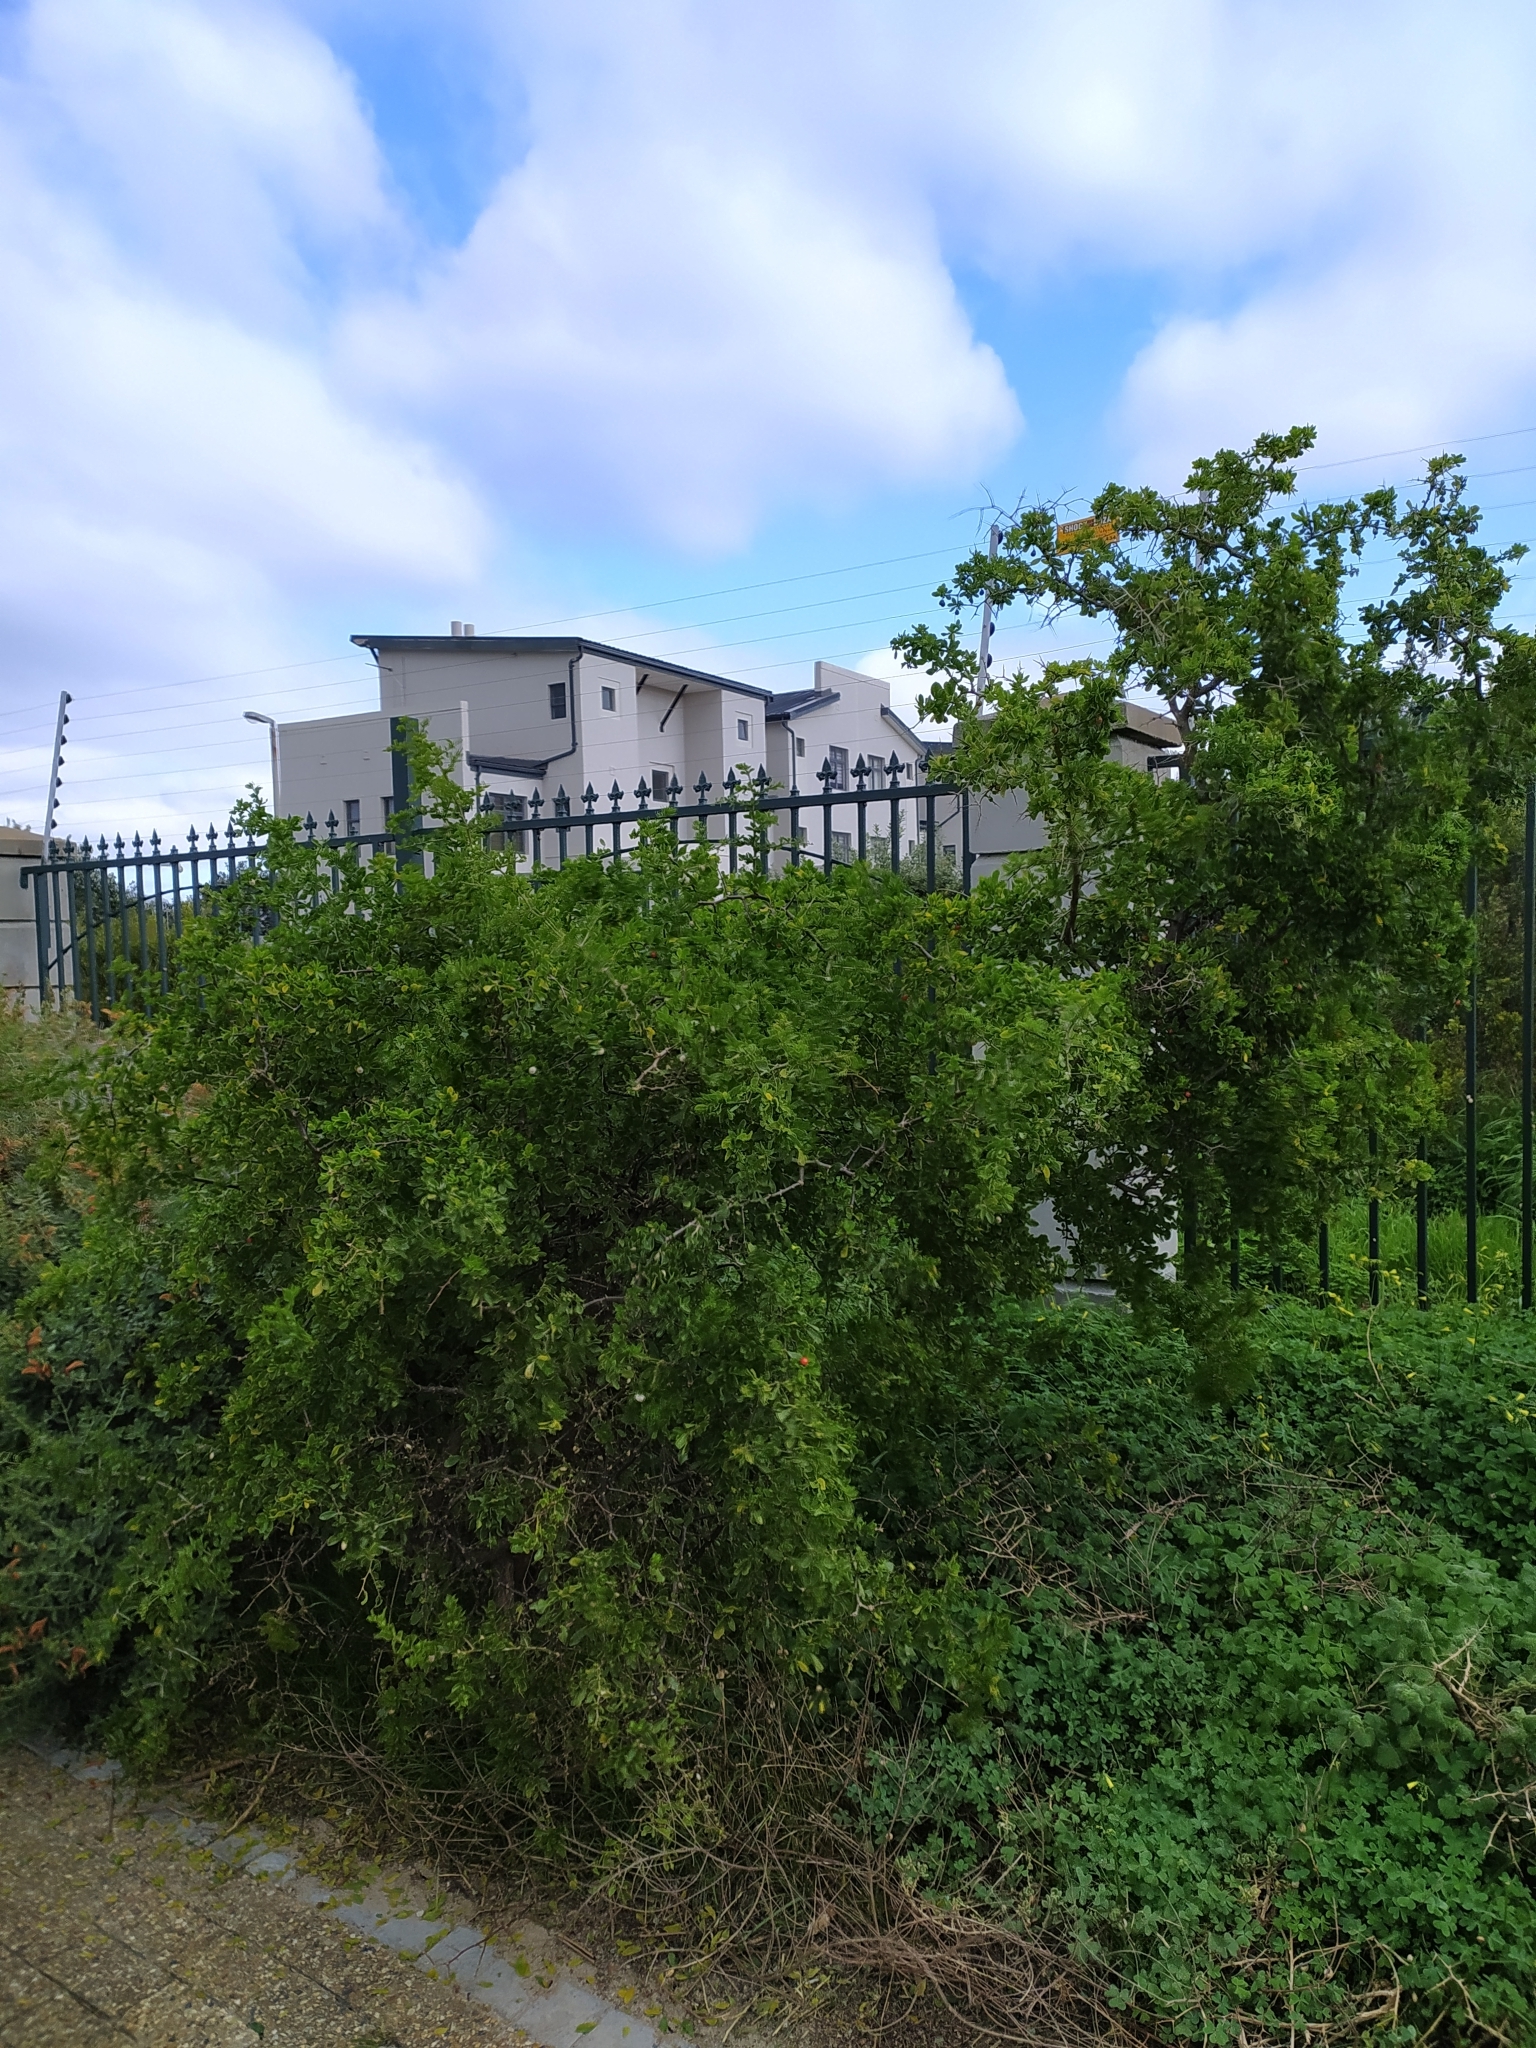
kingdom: Plantae
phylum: Tracheophyta
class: Magnoliopsida
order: Solanales
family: Solanaceae
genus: Lycium
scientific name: Lycium ferocissimum
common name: African boxthorn
